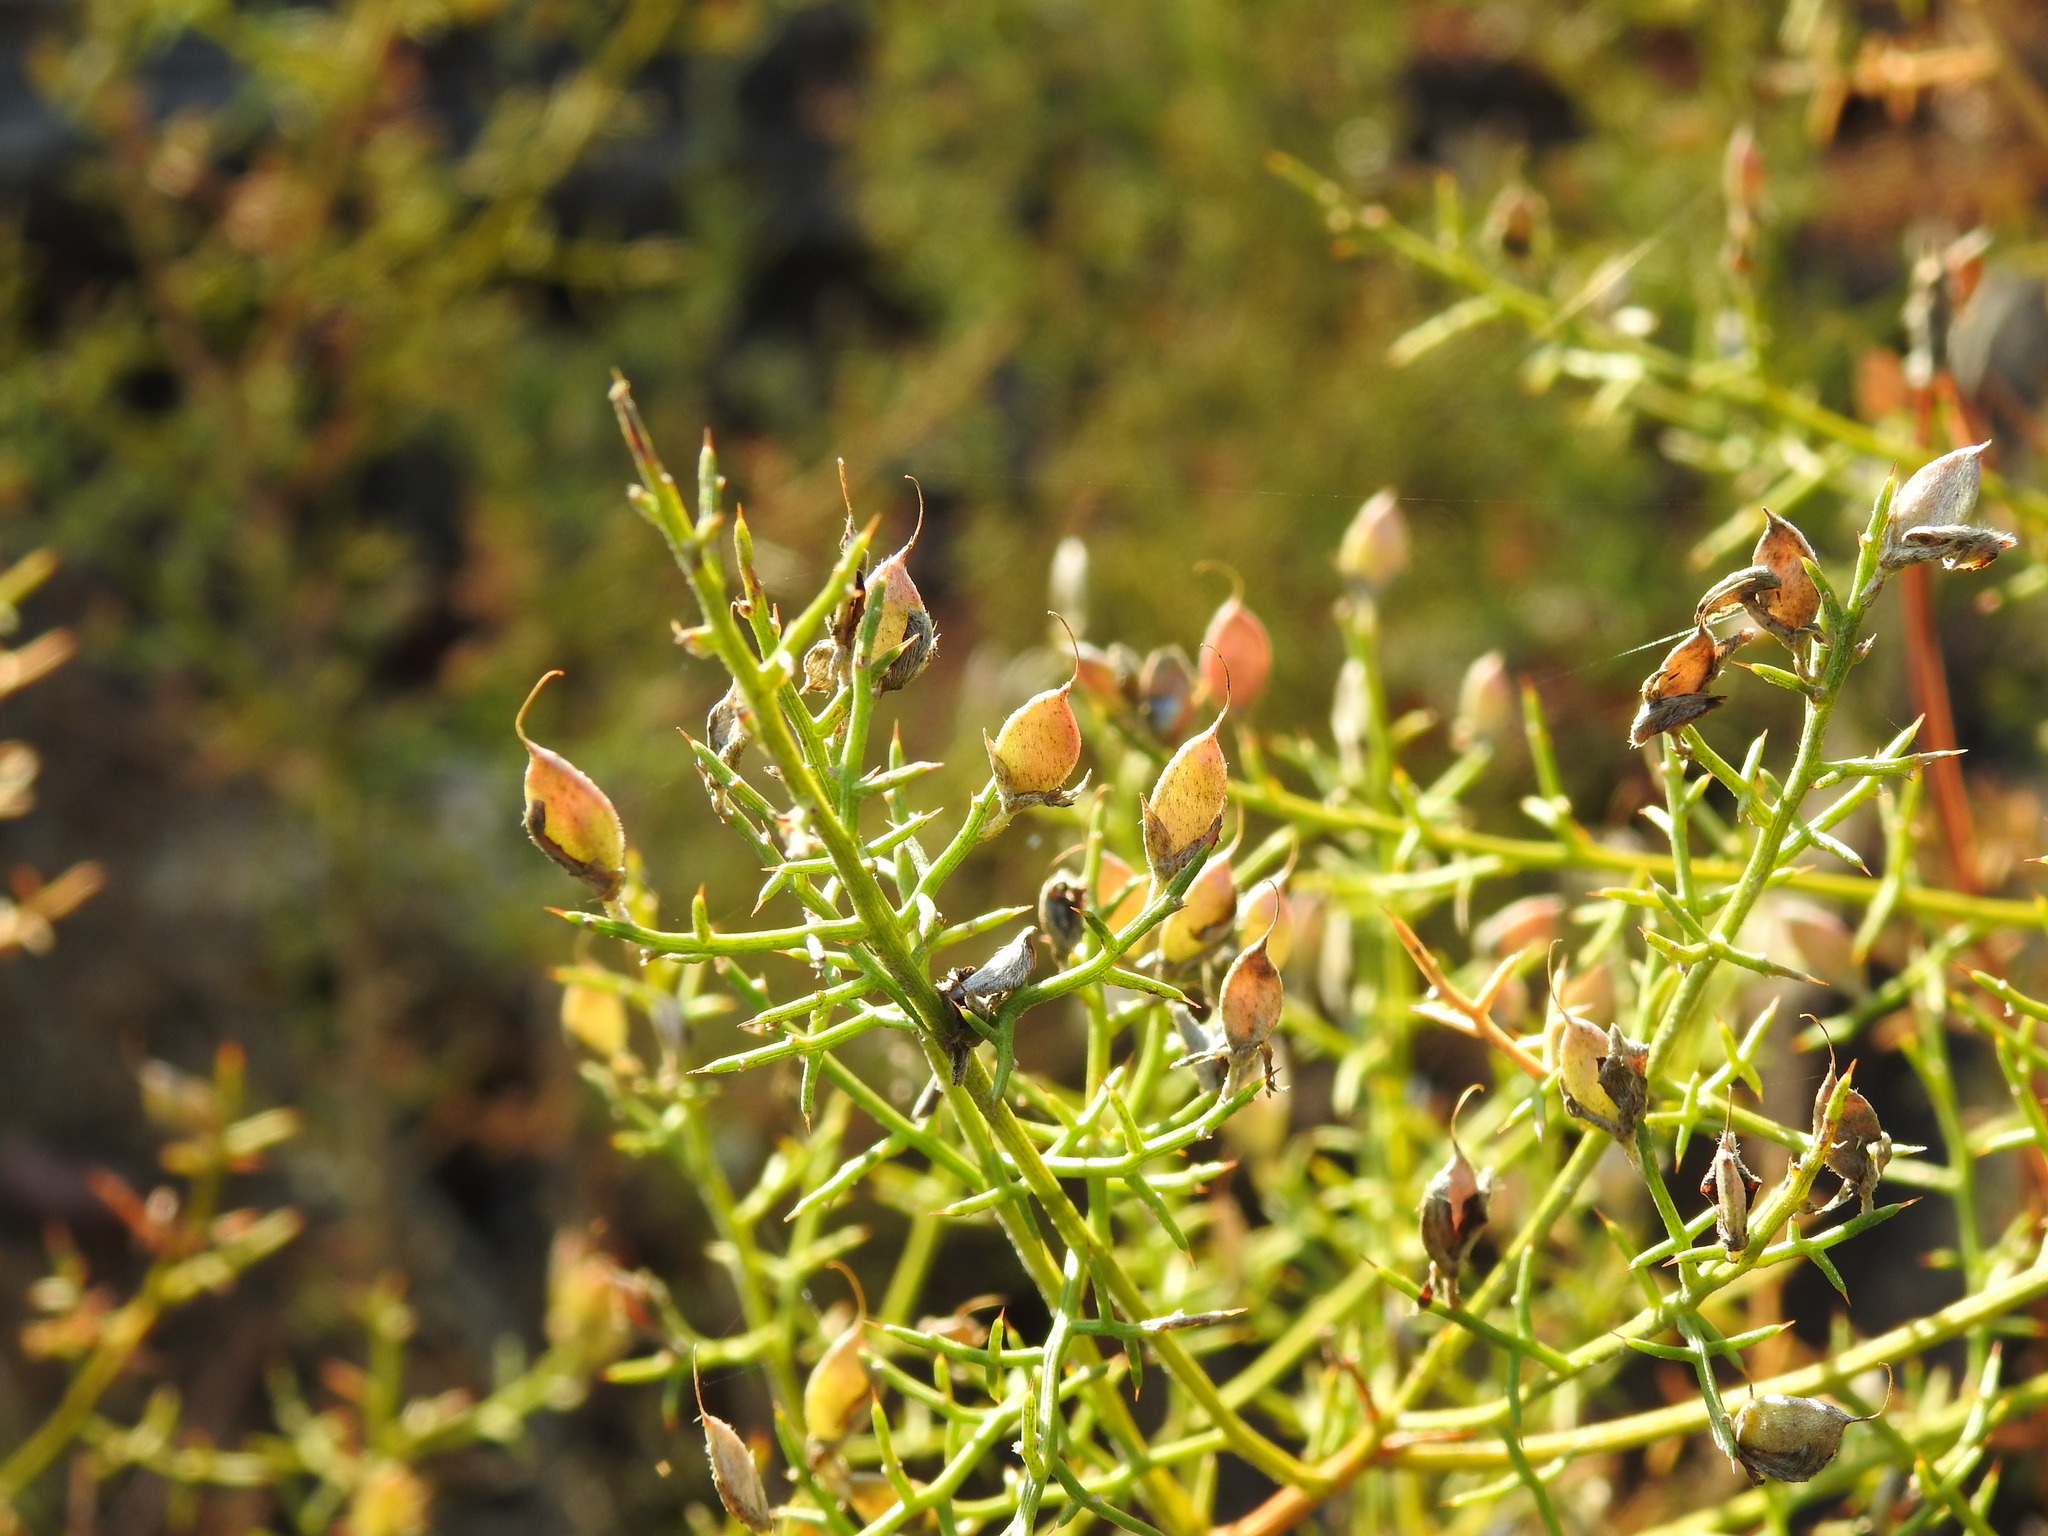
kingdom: Plantae
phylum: Tracheophyta
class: Magnoliopsida
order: Fabales
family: Fabaceae
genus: Stauracanthus
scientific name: Stauracanthus boivinii
